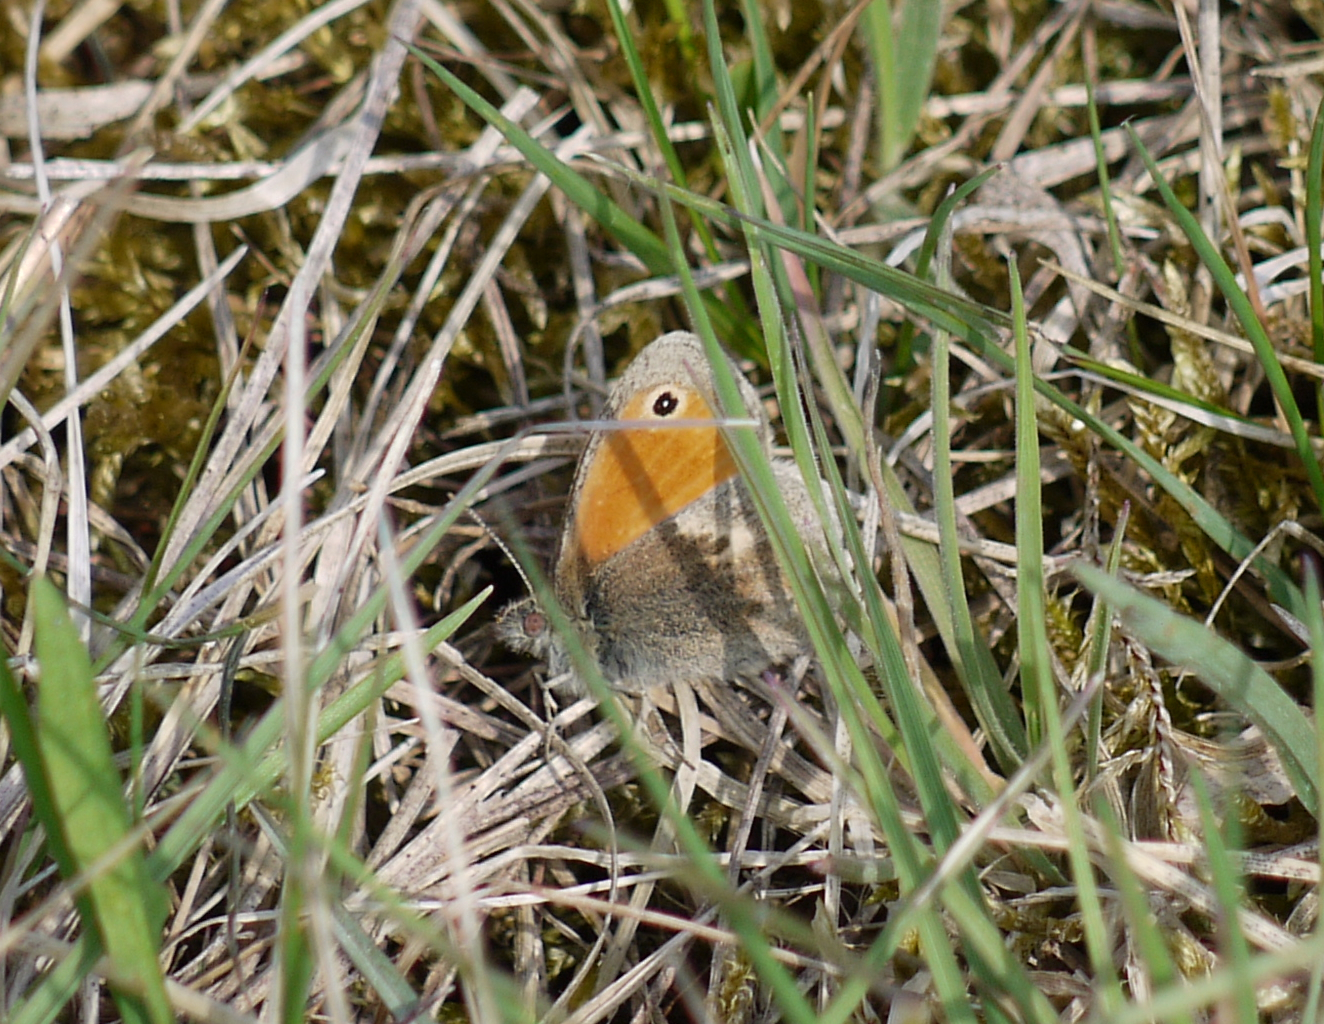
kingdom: Animalia
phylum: Arthropoda
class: Insecta
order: Lepidoptera
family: Nymphalidae
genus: Coenonympha
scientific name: Coenonympha pamphilus
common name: Small heath
